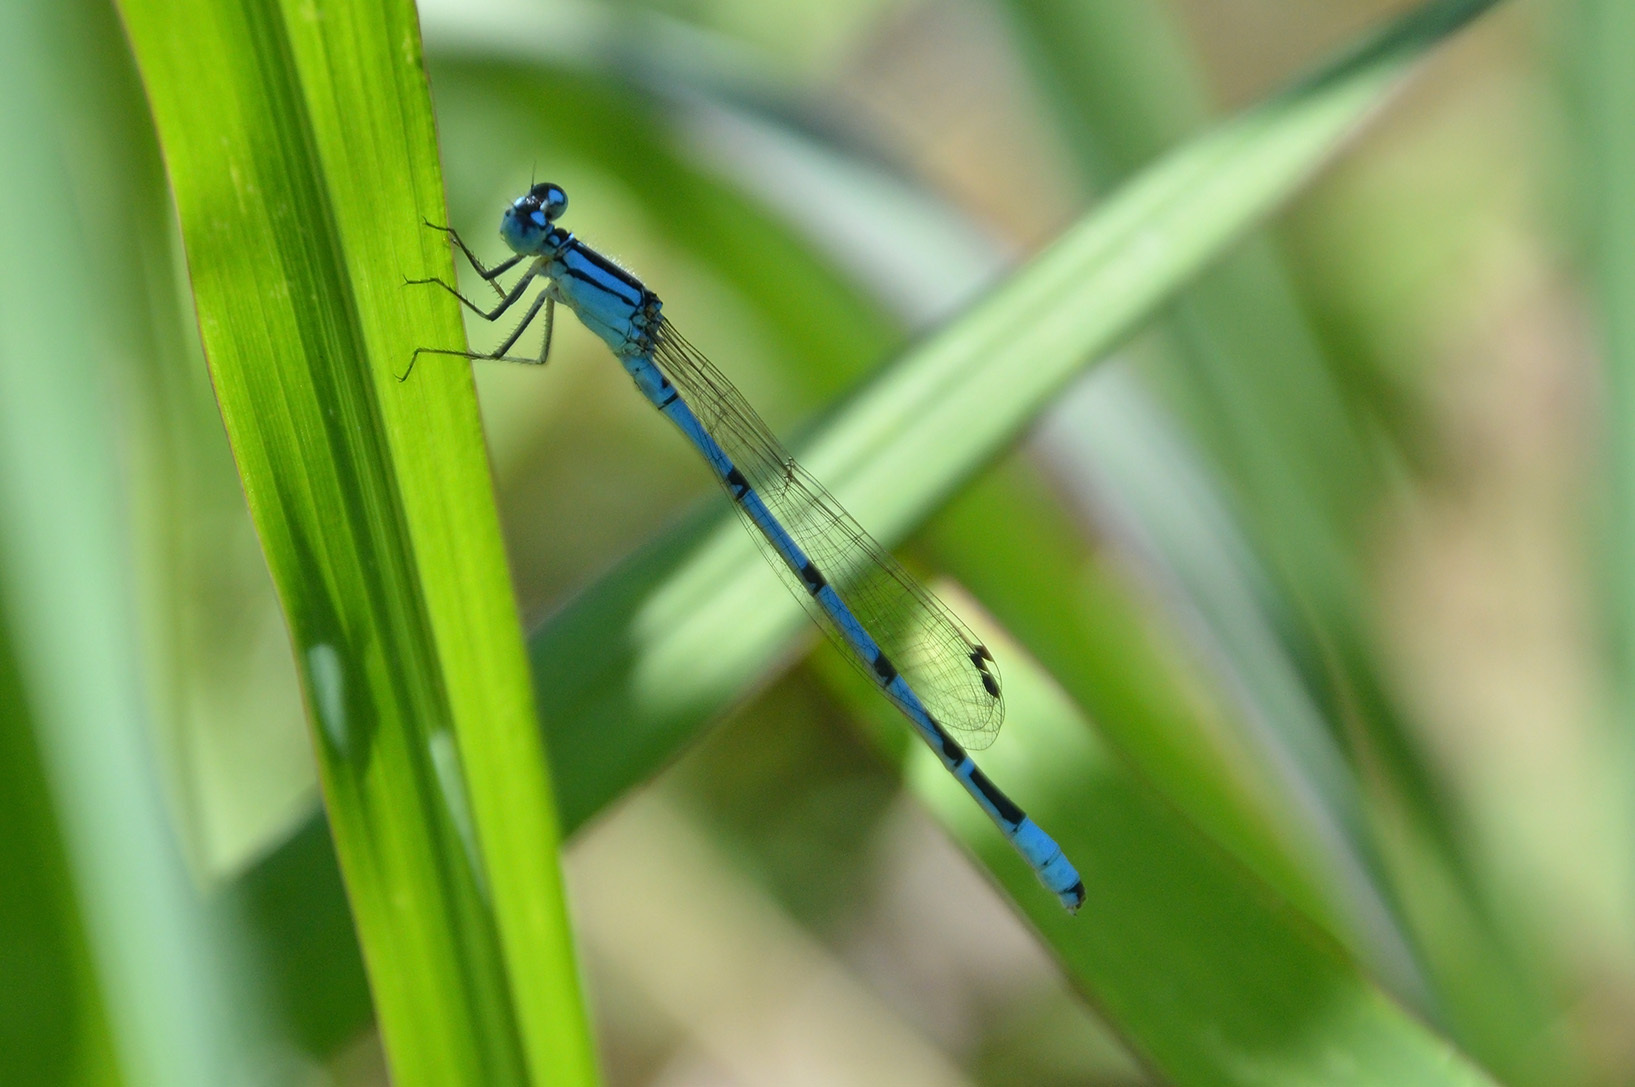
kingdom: Animalia
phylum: Arthropoda
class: Insecta
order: Odonata
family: Coenagrionidae
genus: Enallagma
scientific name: Enallagma cyathigerum
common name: Common blue damselfly
